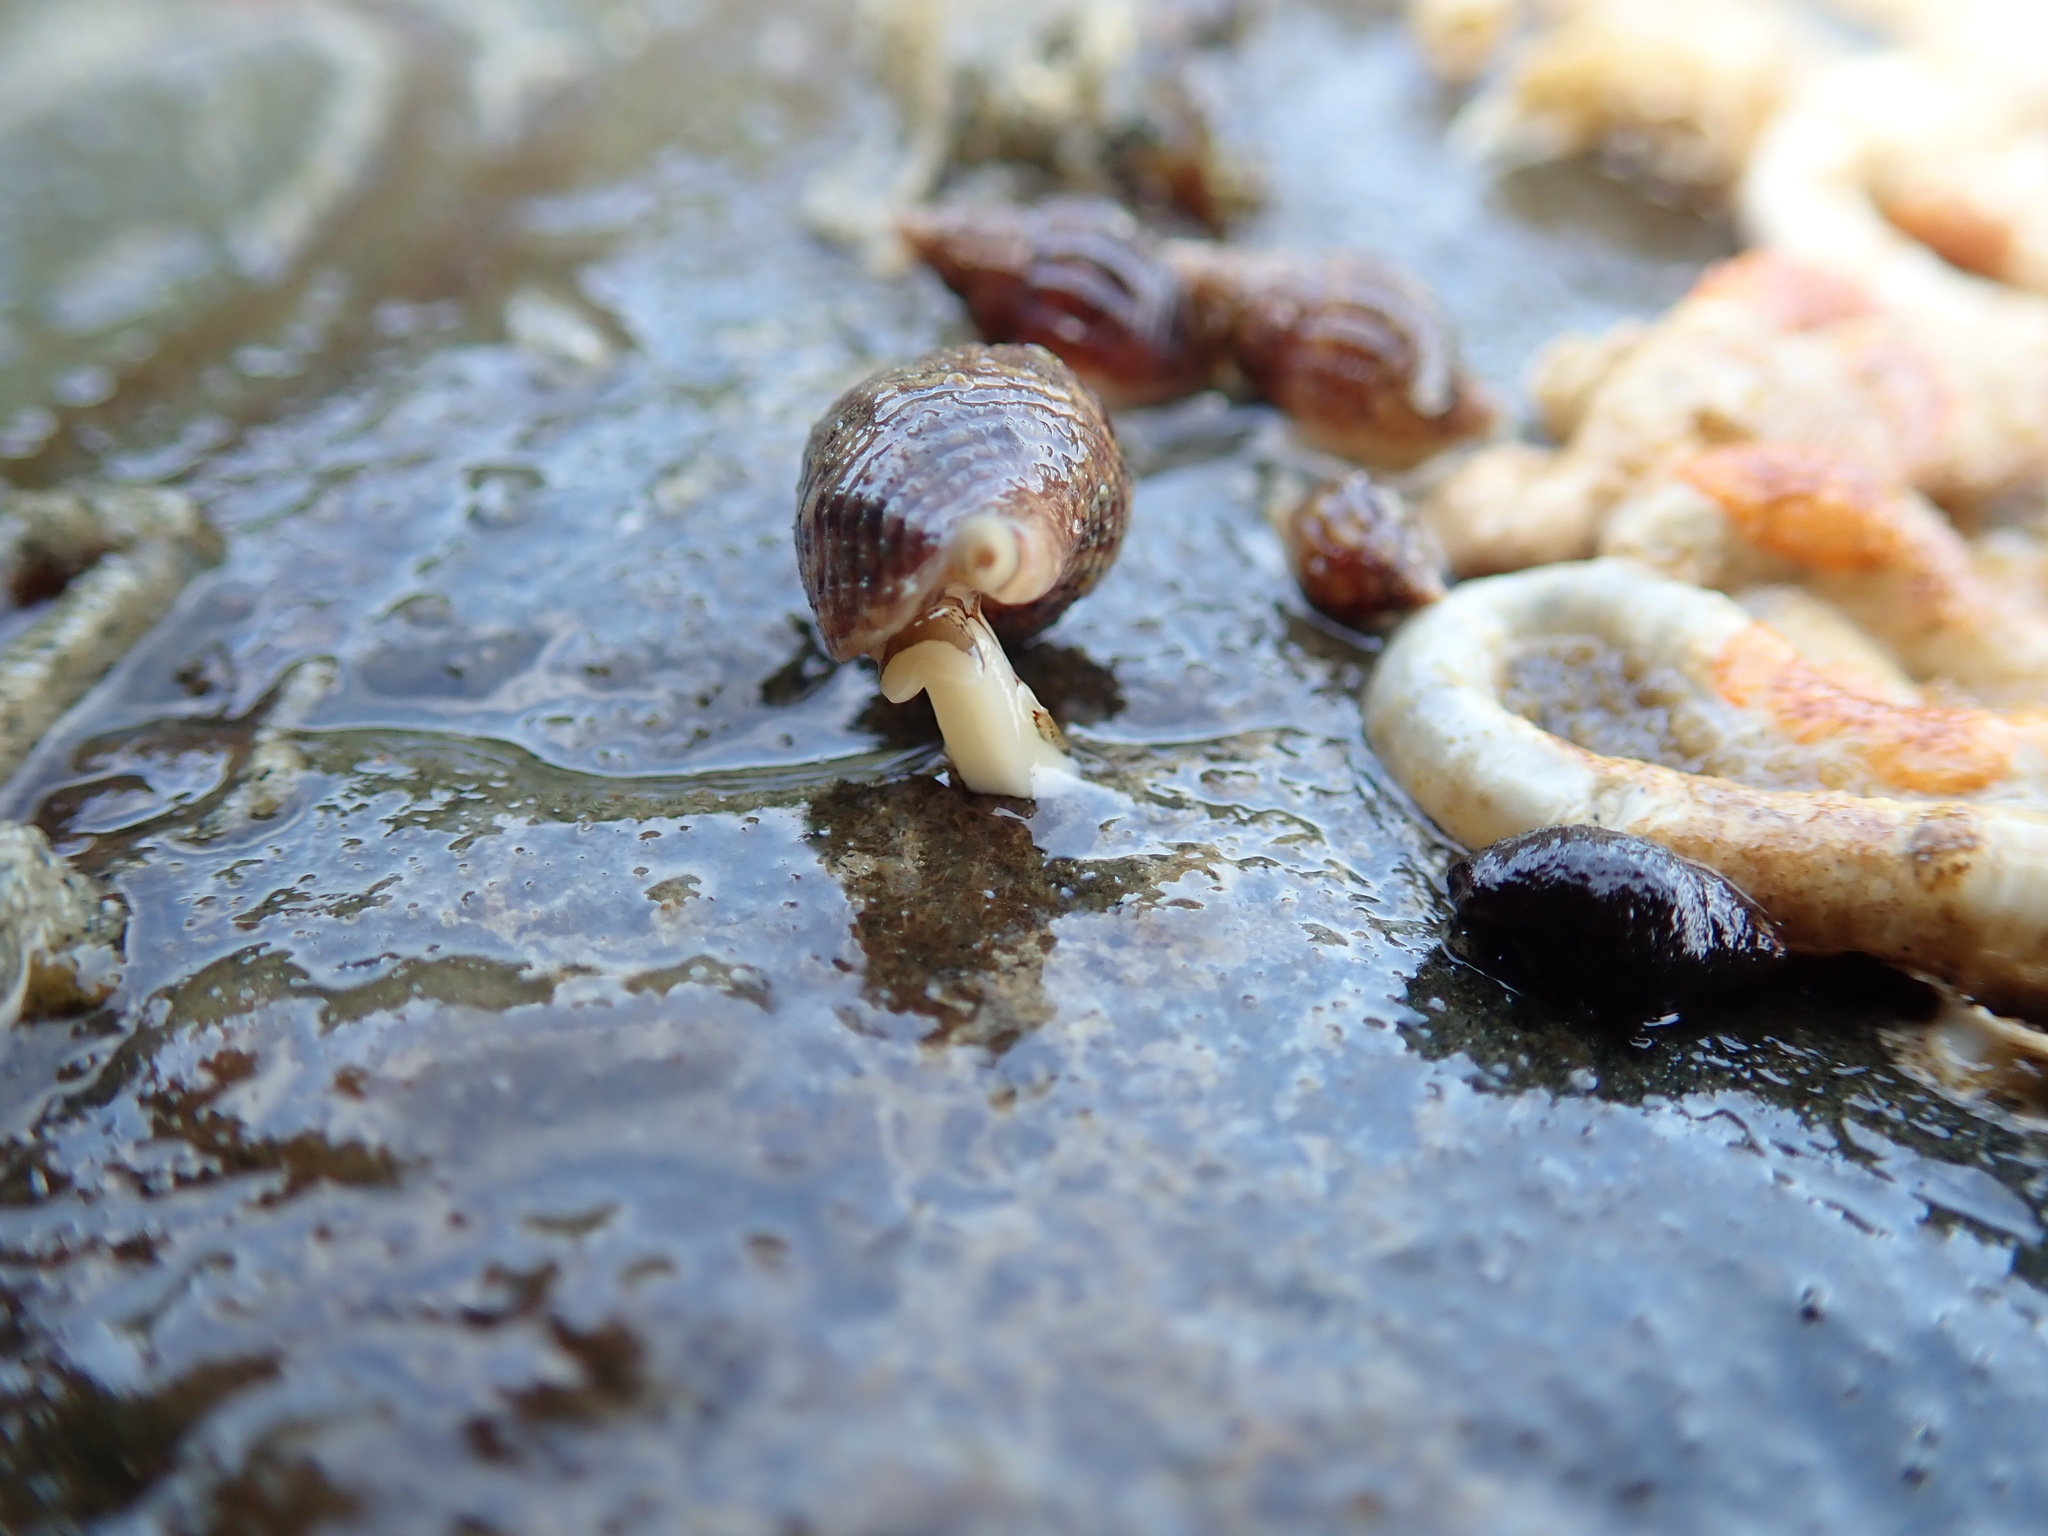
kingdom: Animalia
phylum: Mollusca
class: Gastropoda
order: Neogastropoda
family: Columbellidae
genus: Amphissa
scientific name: Amphissa columbiana
